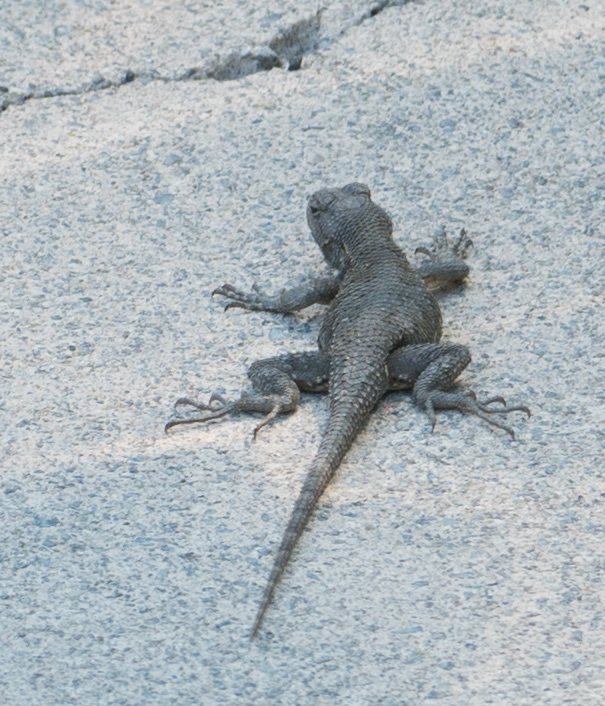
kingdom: Animalia
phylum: Chordata
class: Squamata
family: Phrynosomatidae
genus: Sceloporus
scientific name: Sceloporus occidentalis
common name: Western fence lizard
